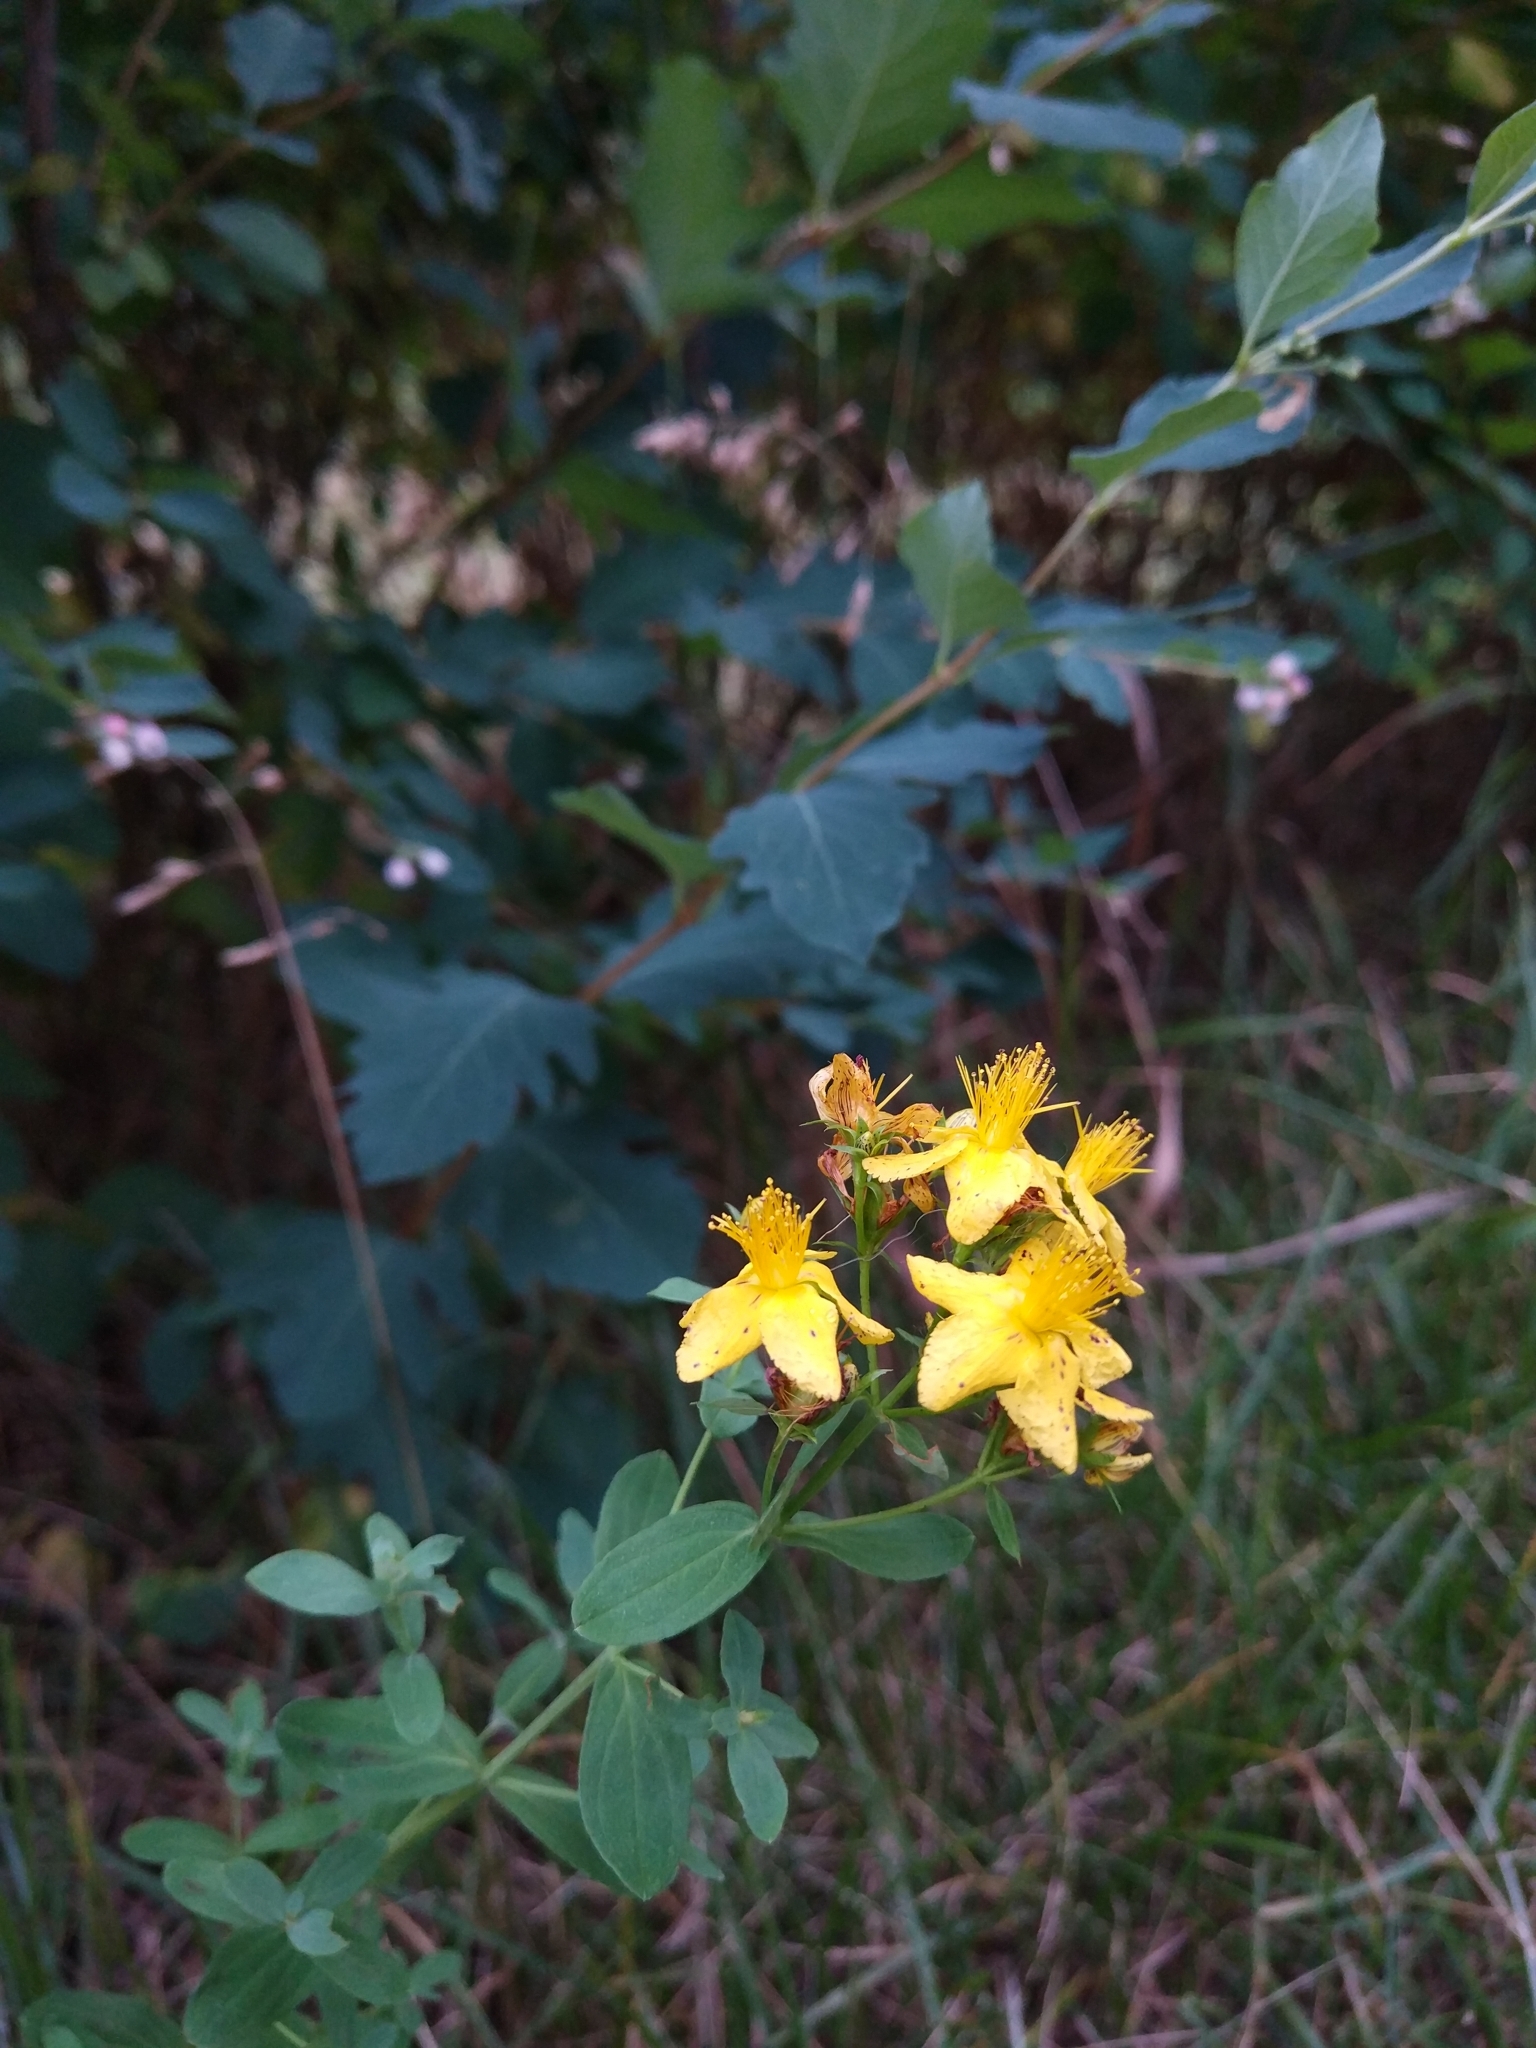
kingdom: Plantae
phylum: Tracheophyta
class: Magnoliopsida
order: Malpighiales
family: Hypericaceae
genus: Hypericum
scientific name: Hypericum perforatum
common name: Common st. johnswort
